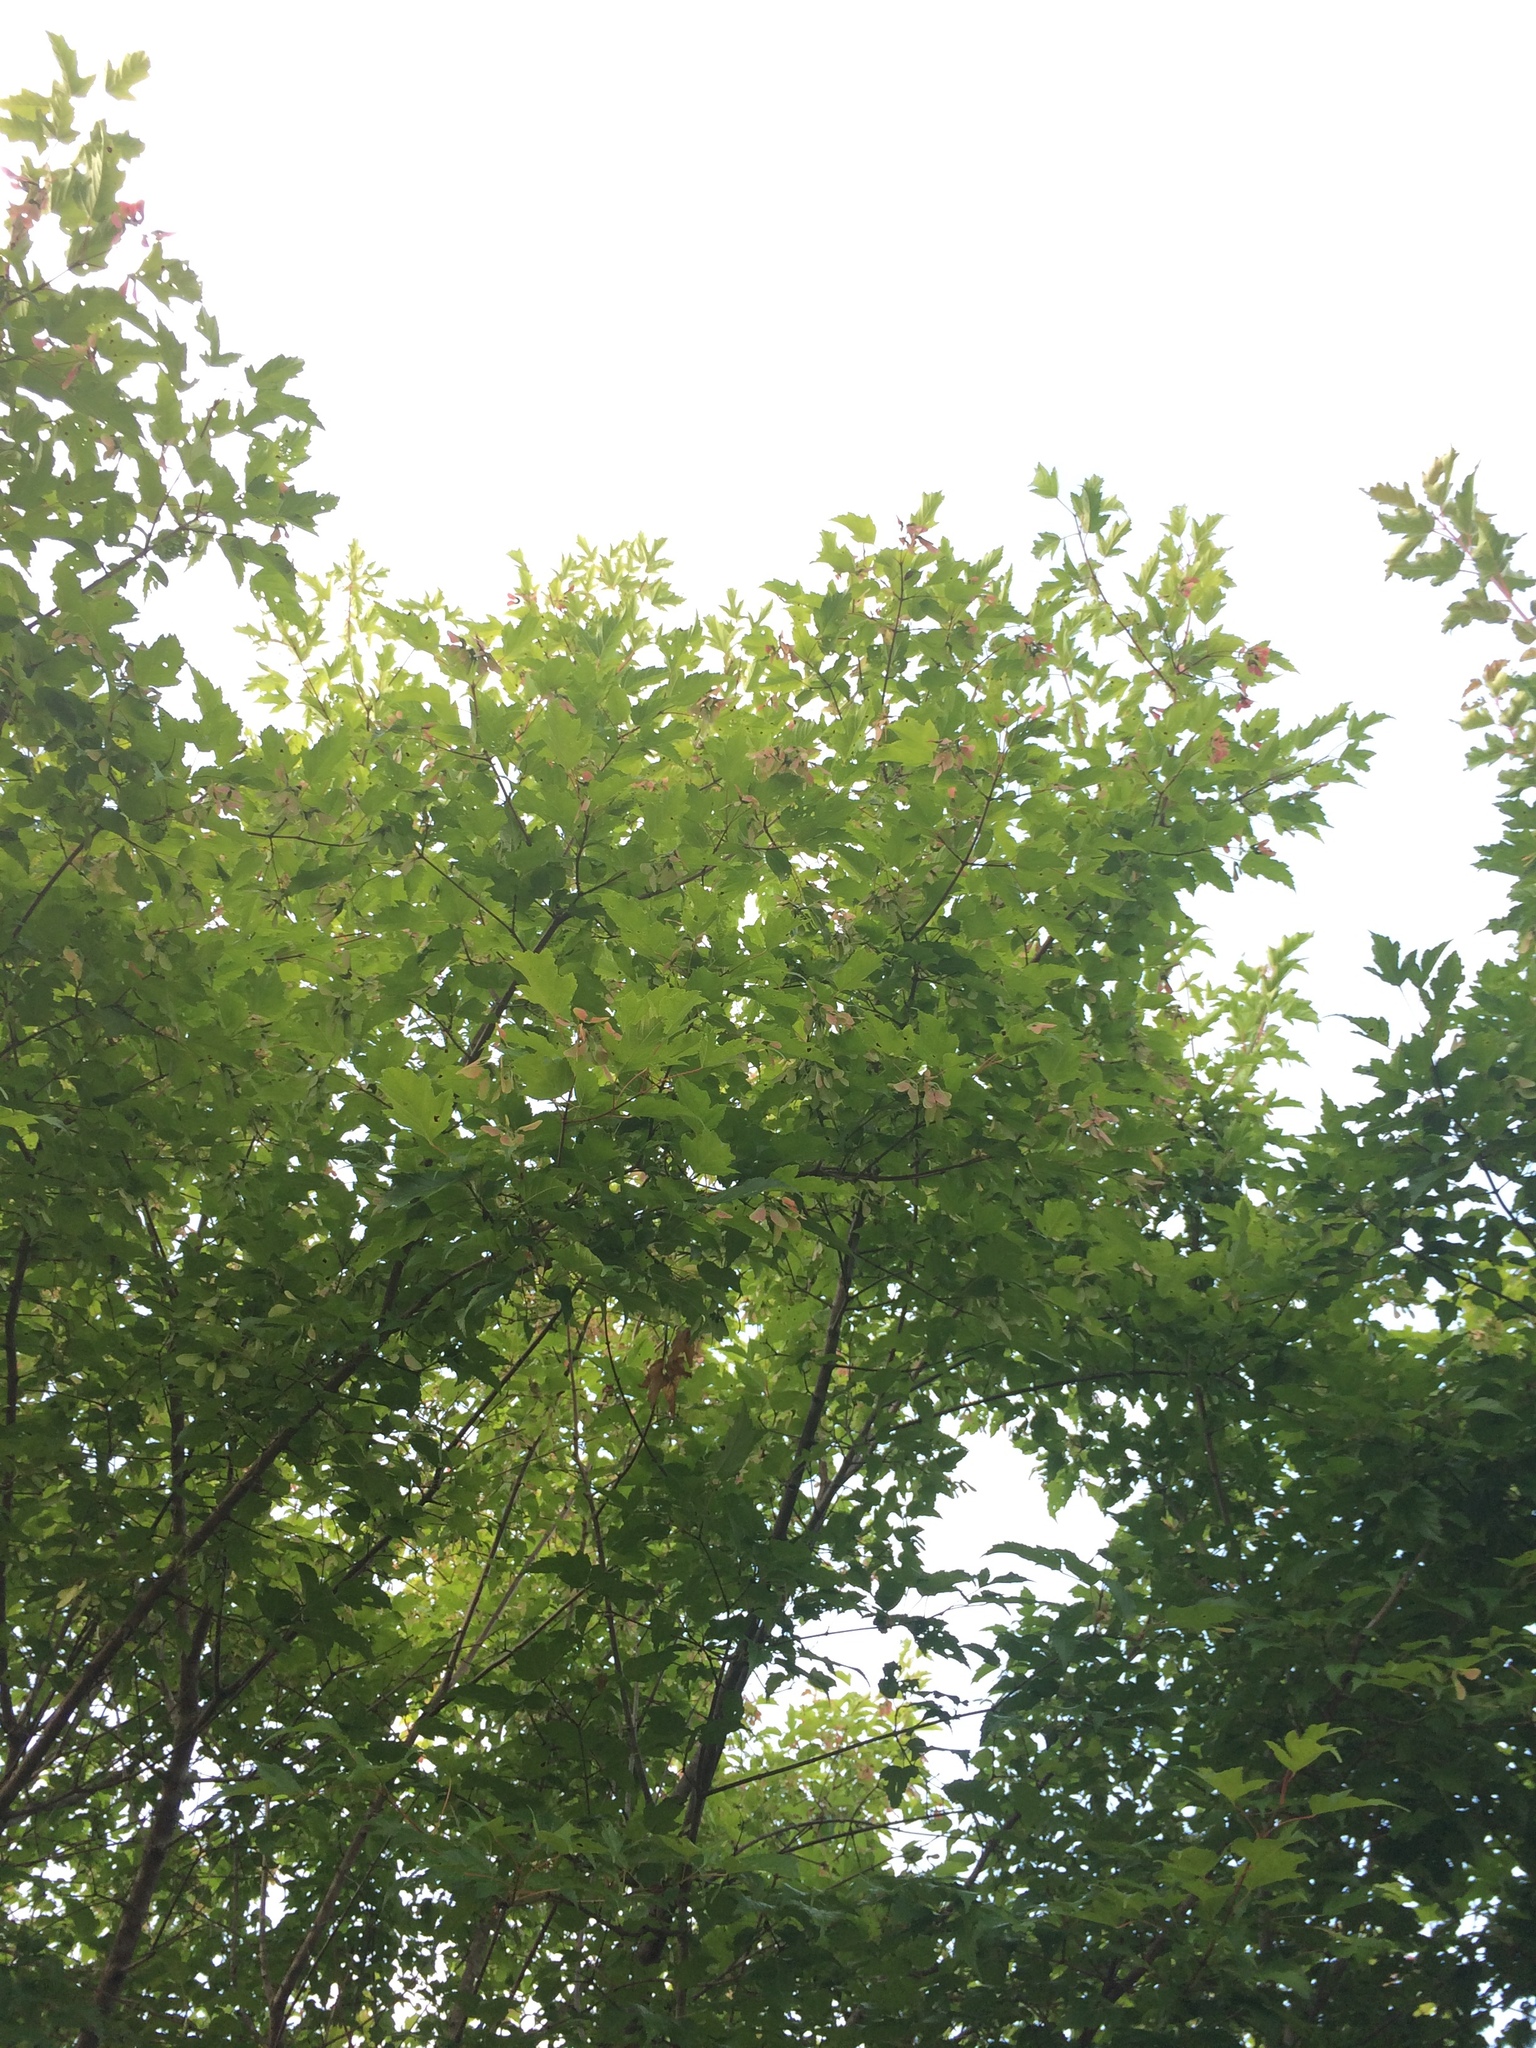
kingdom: Plantae
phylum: Tracheophyta
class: Magnoliopsida
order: Sapindales
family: Sapindaceae
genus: Acer
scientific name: Acer tataricum
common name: Tartar maple
